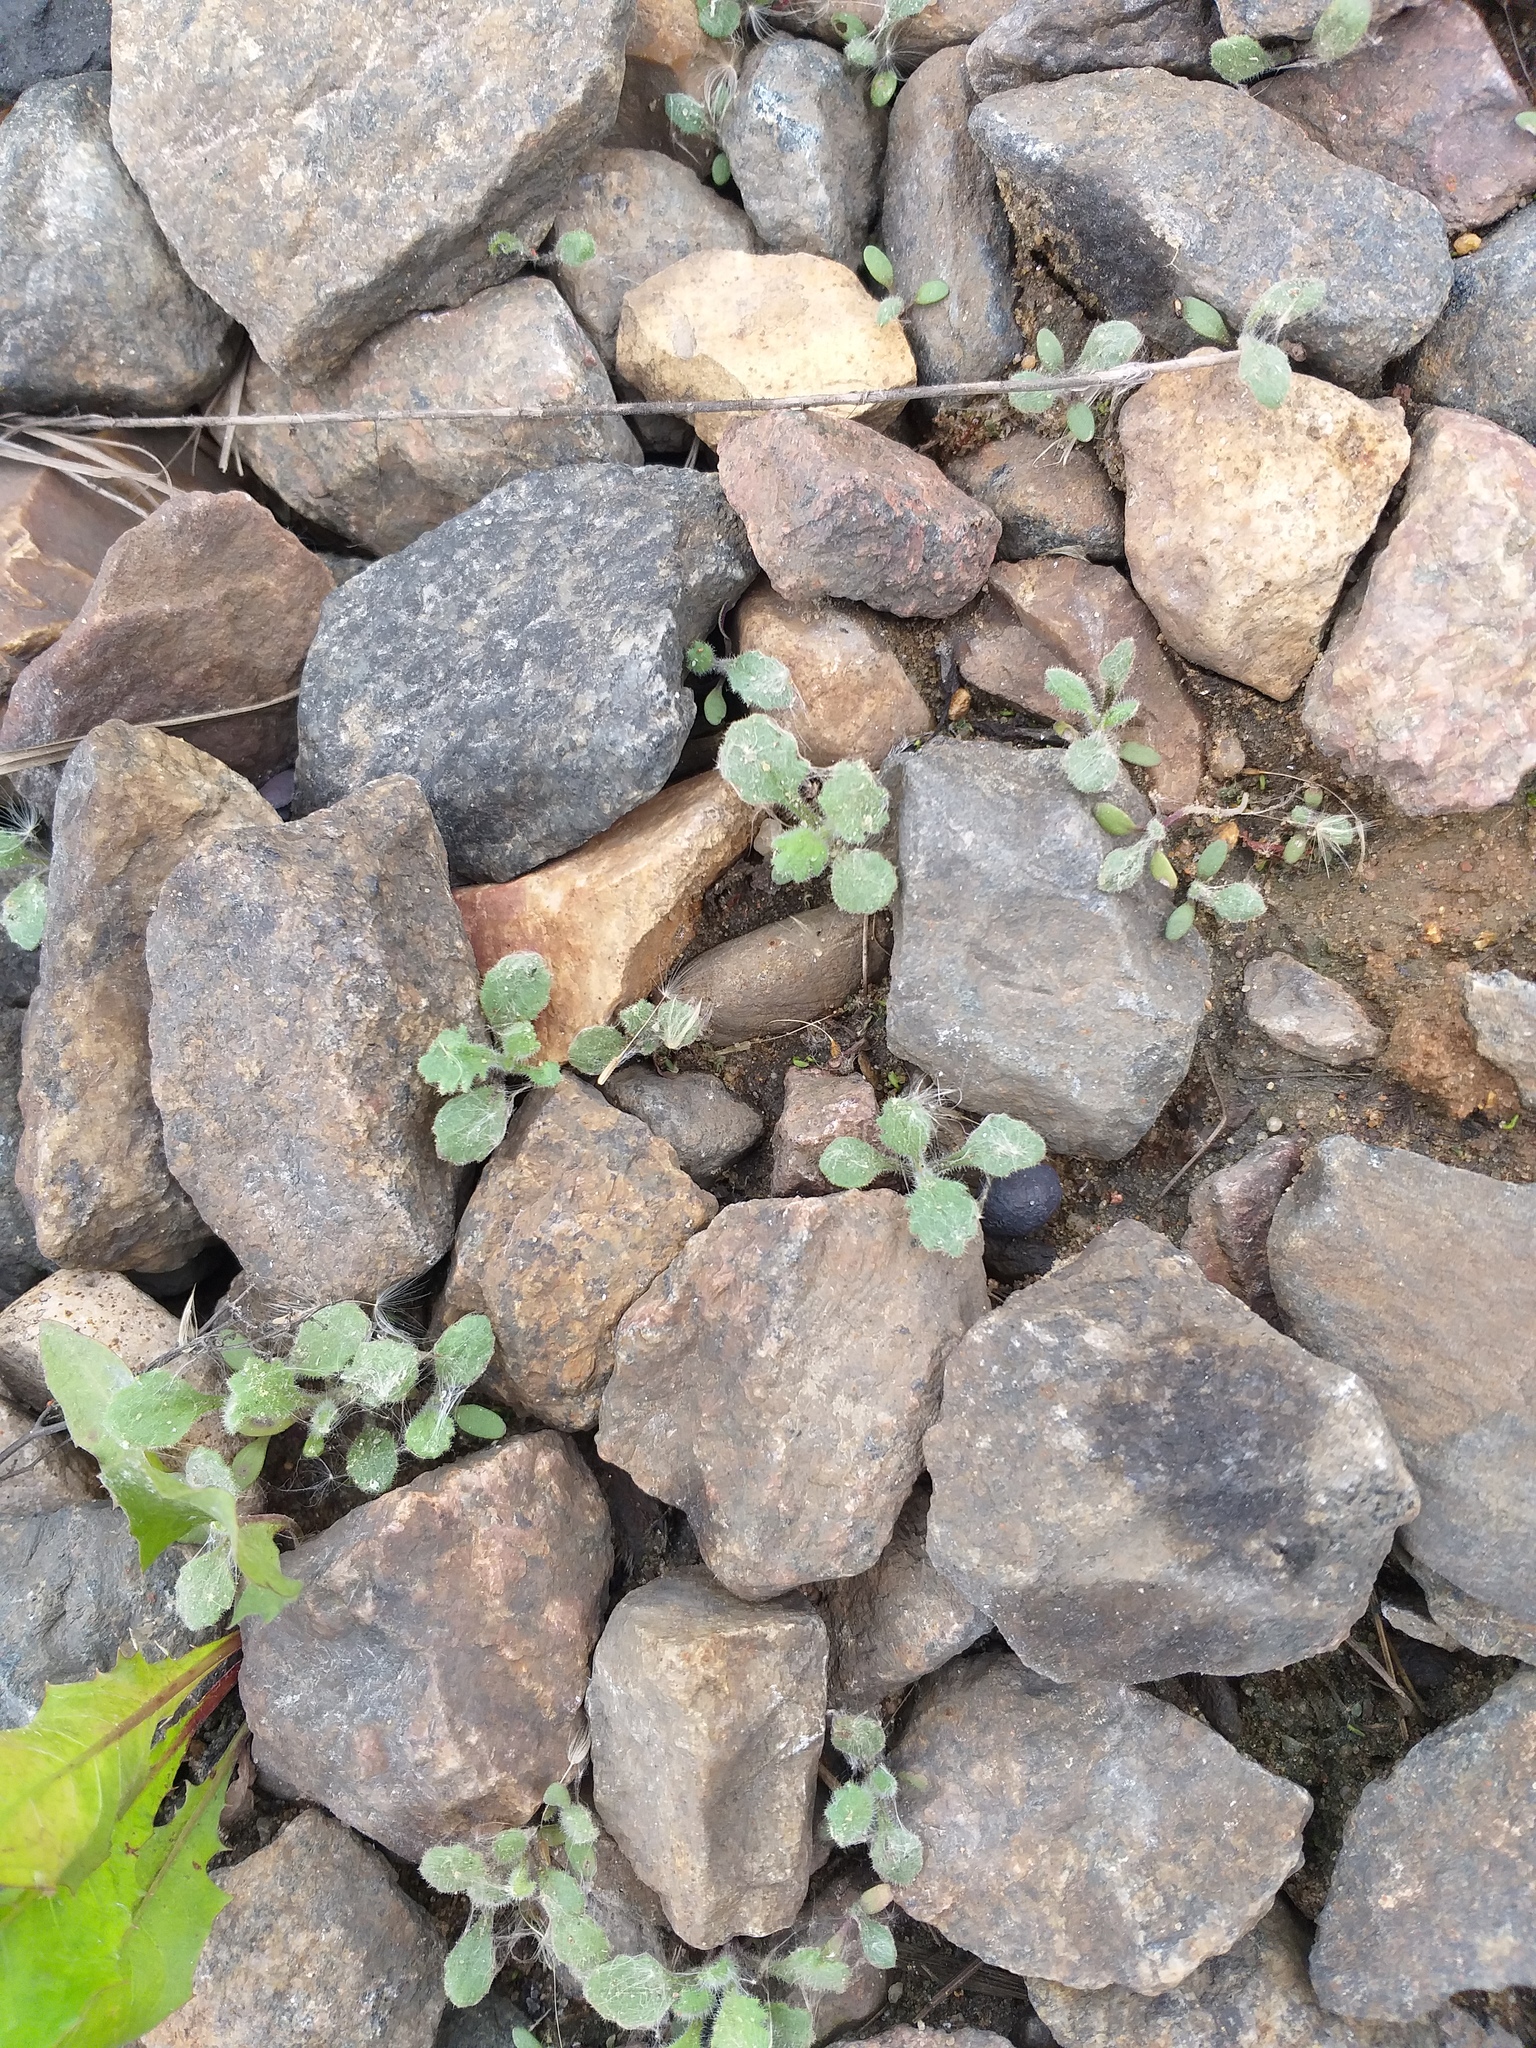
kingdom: Plantae
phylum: Tracheophyta
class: Magnoliopsida
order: Asterales
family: Asteraceae
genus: Senecio
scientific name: Senecio viscosus
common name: Sticky groundsel
